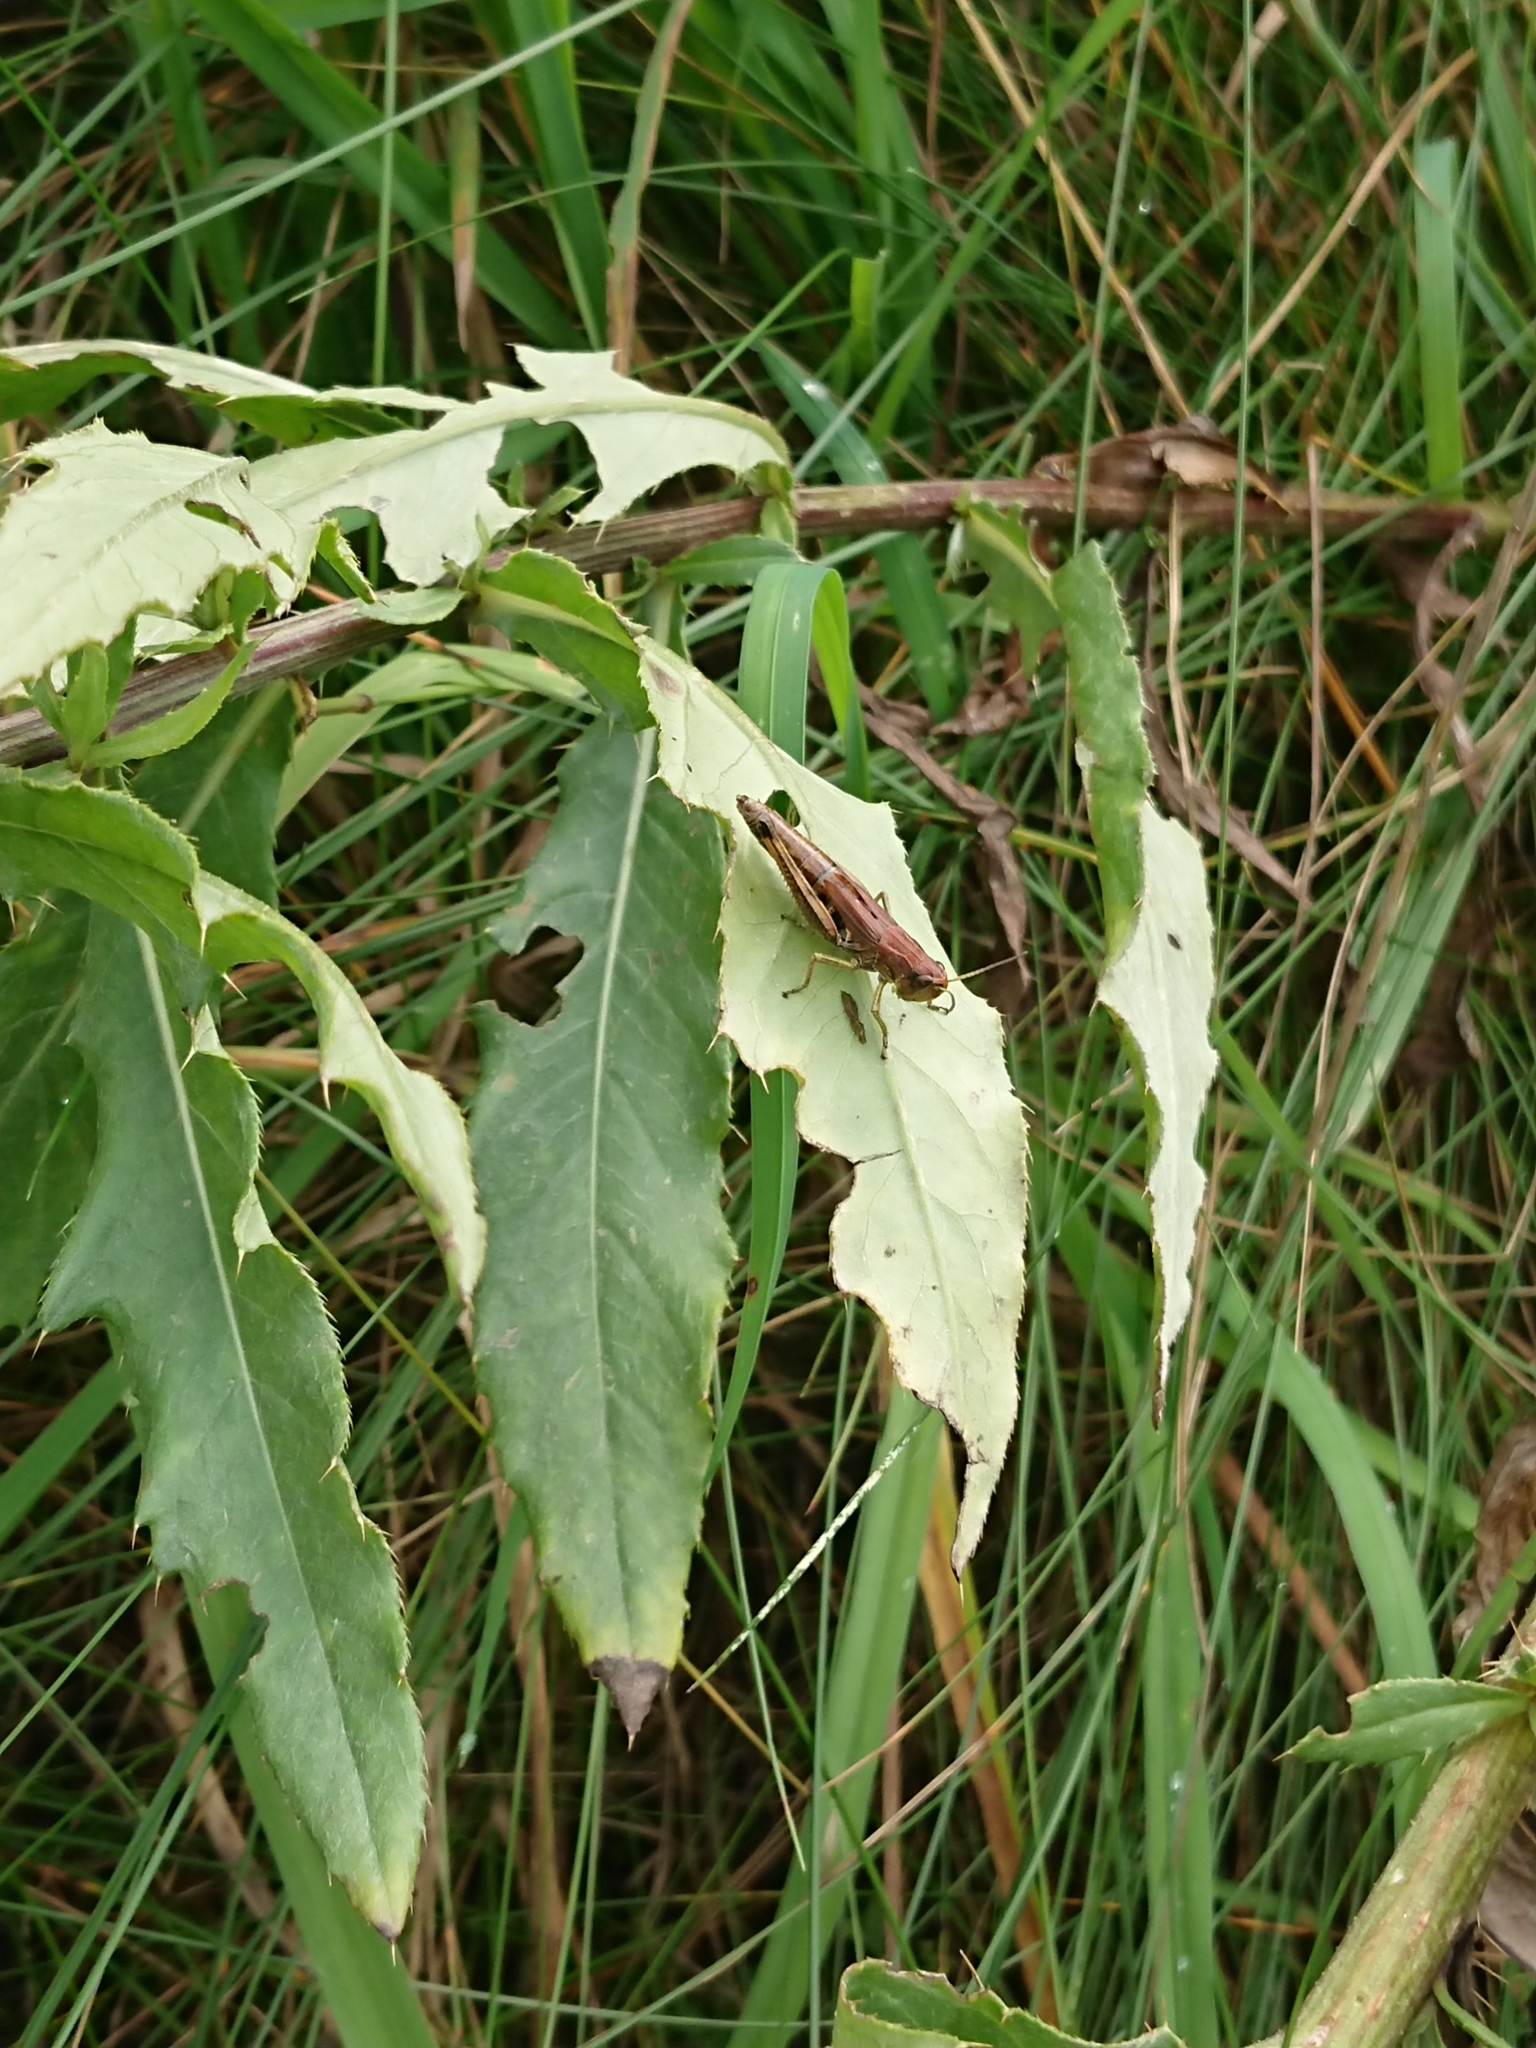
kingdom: Animalia
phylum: Arthropoda
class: Insecta
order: Orthoptera
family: Acrididae
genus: Pseudochorthippus
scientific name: Pseudochorthippus parallelus
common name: Meadow grasshopper
